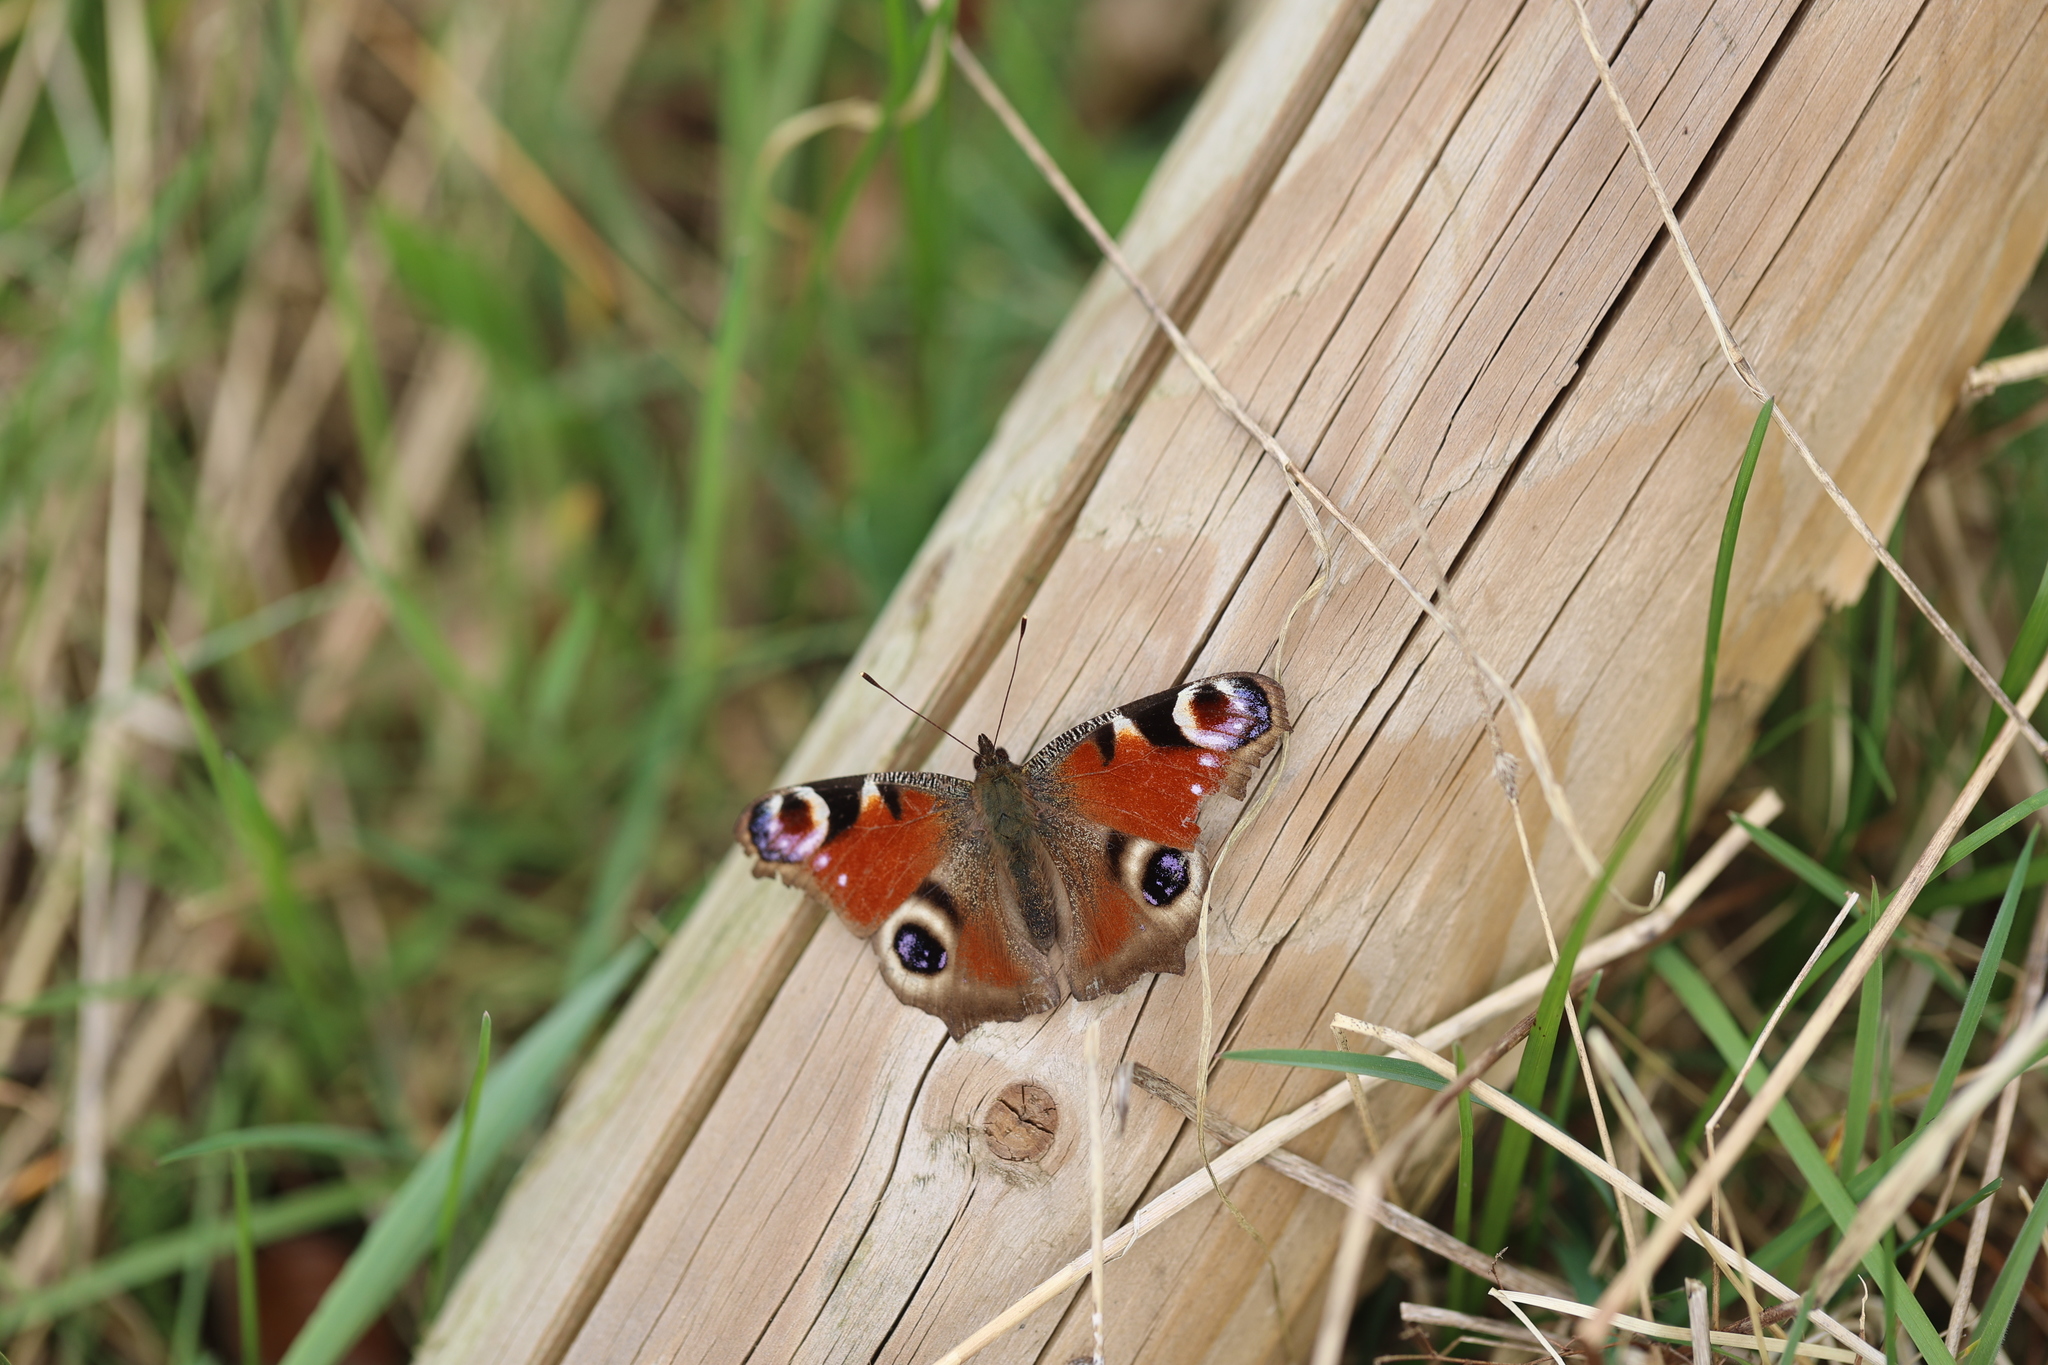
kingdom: Animalia
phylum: Arthropoda
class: Insecta
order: Lepidoptera
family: Nymphalidae
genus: Aglais
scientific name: Aglais io
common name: Peacock
